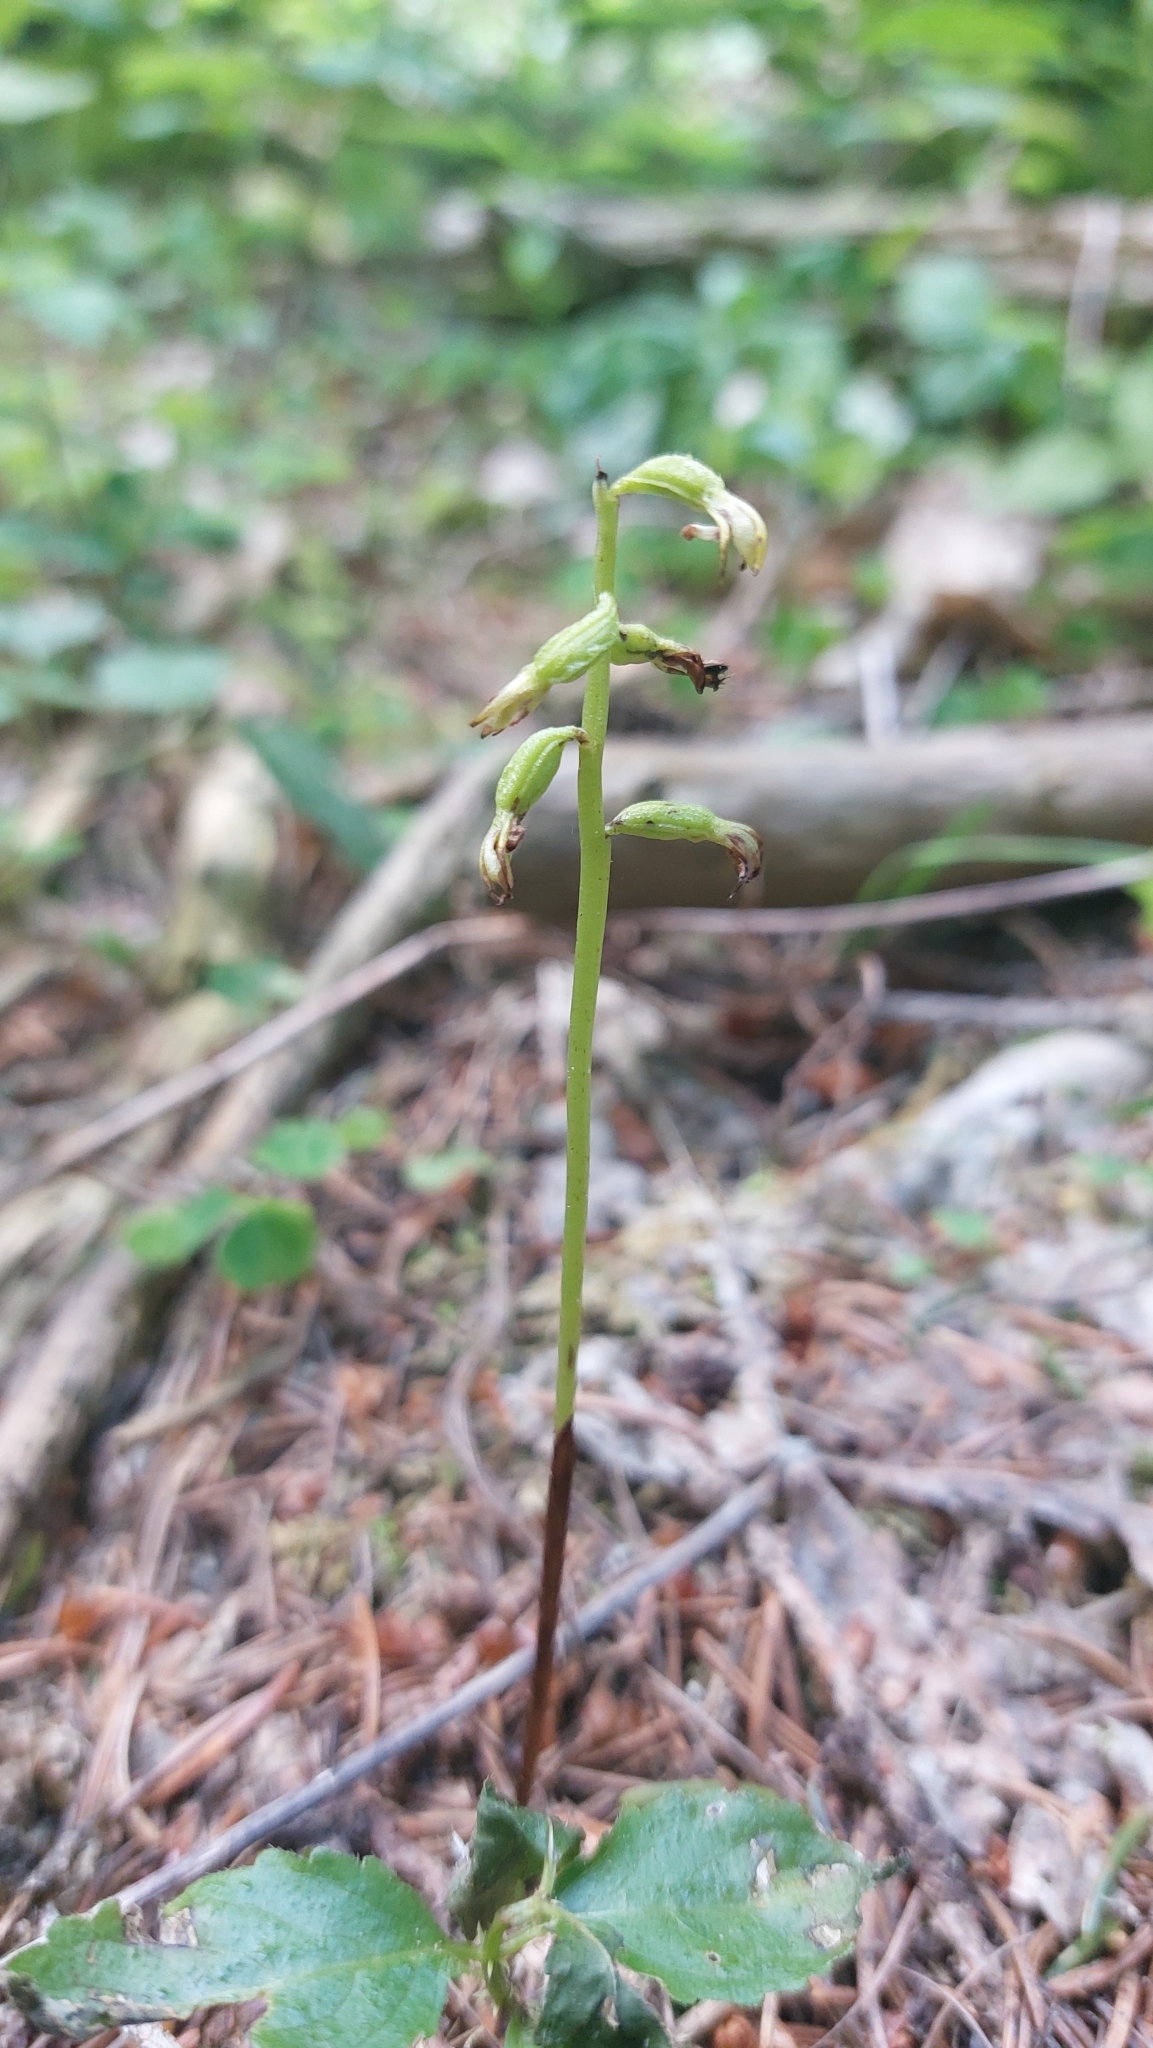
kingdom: Plantae
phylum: Tracheophyta
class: Liliopsida
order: Asparagales
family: Orchidaceae
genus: Corallorhiza
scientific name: Corallorhiza trifida
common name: Yellow coralroot
